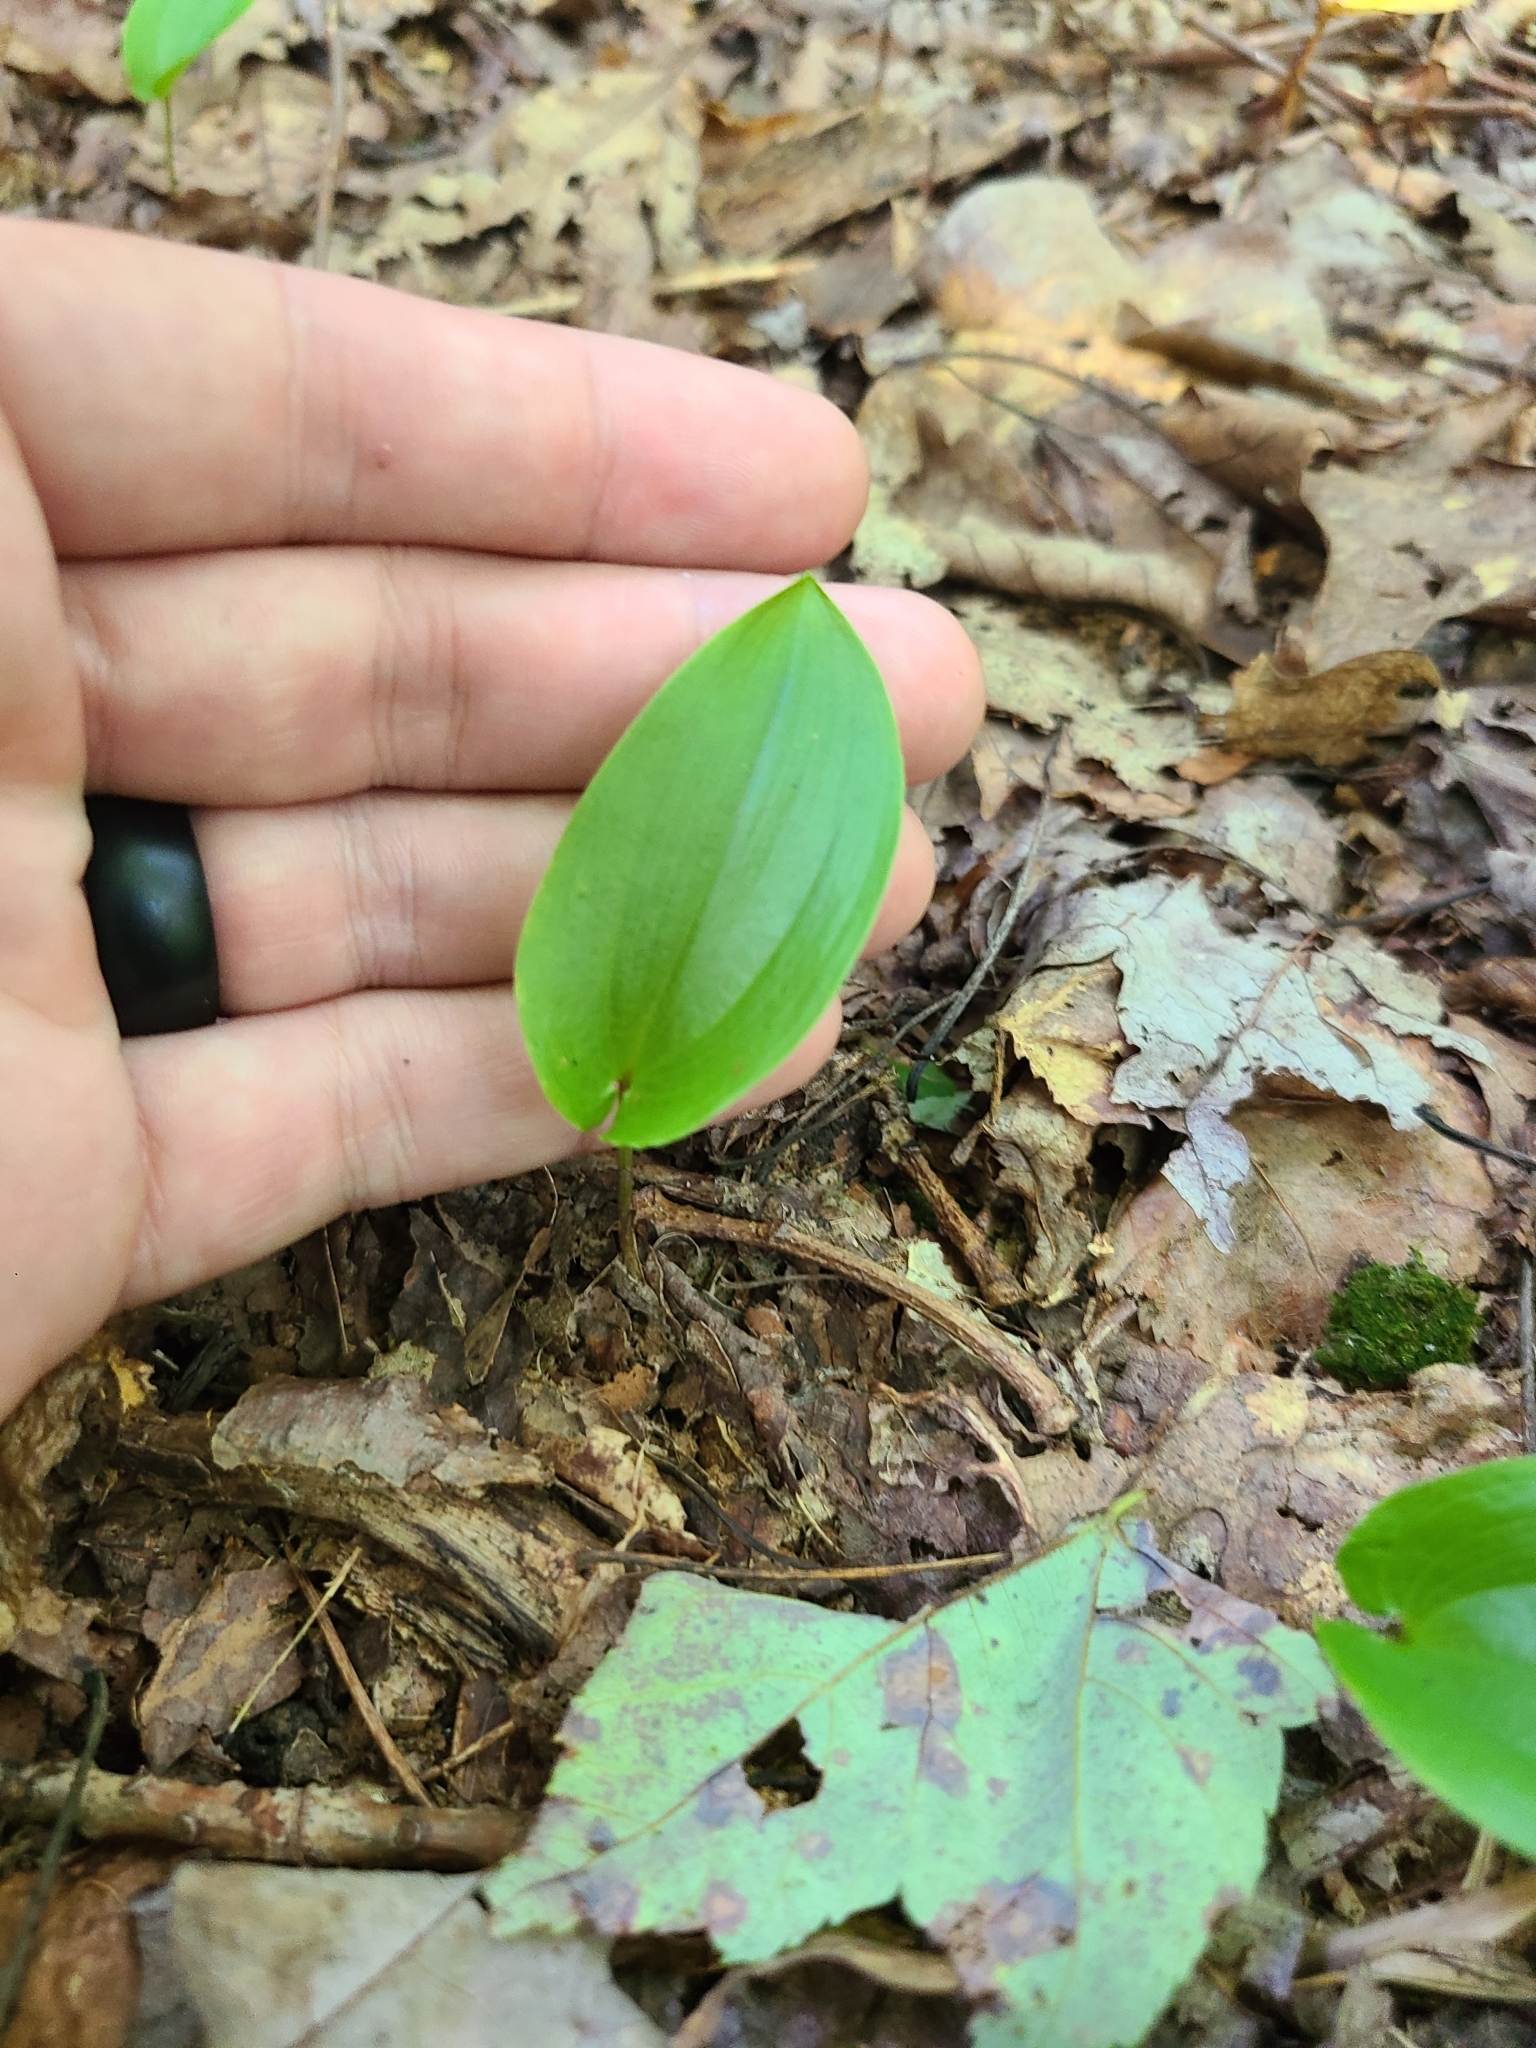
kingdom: Plantae
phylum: Tracheophyta
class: Liliopsida
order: Asparagales
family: Asparagaceae
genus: Maianthemum
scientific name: Maianthemum canadense
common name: False lily-of-the-valley
